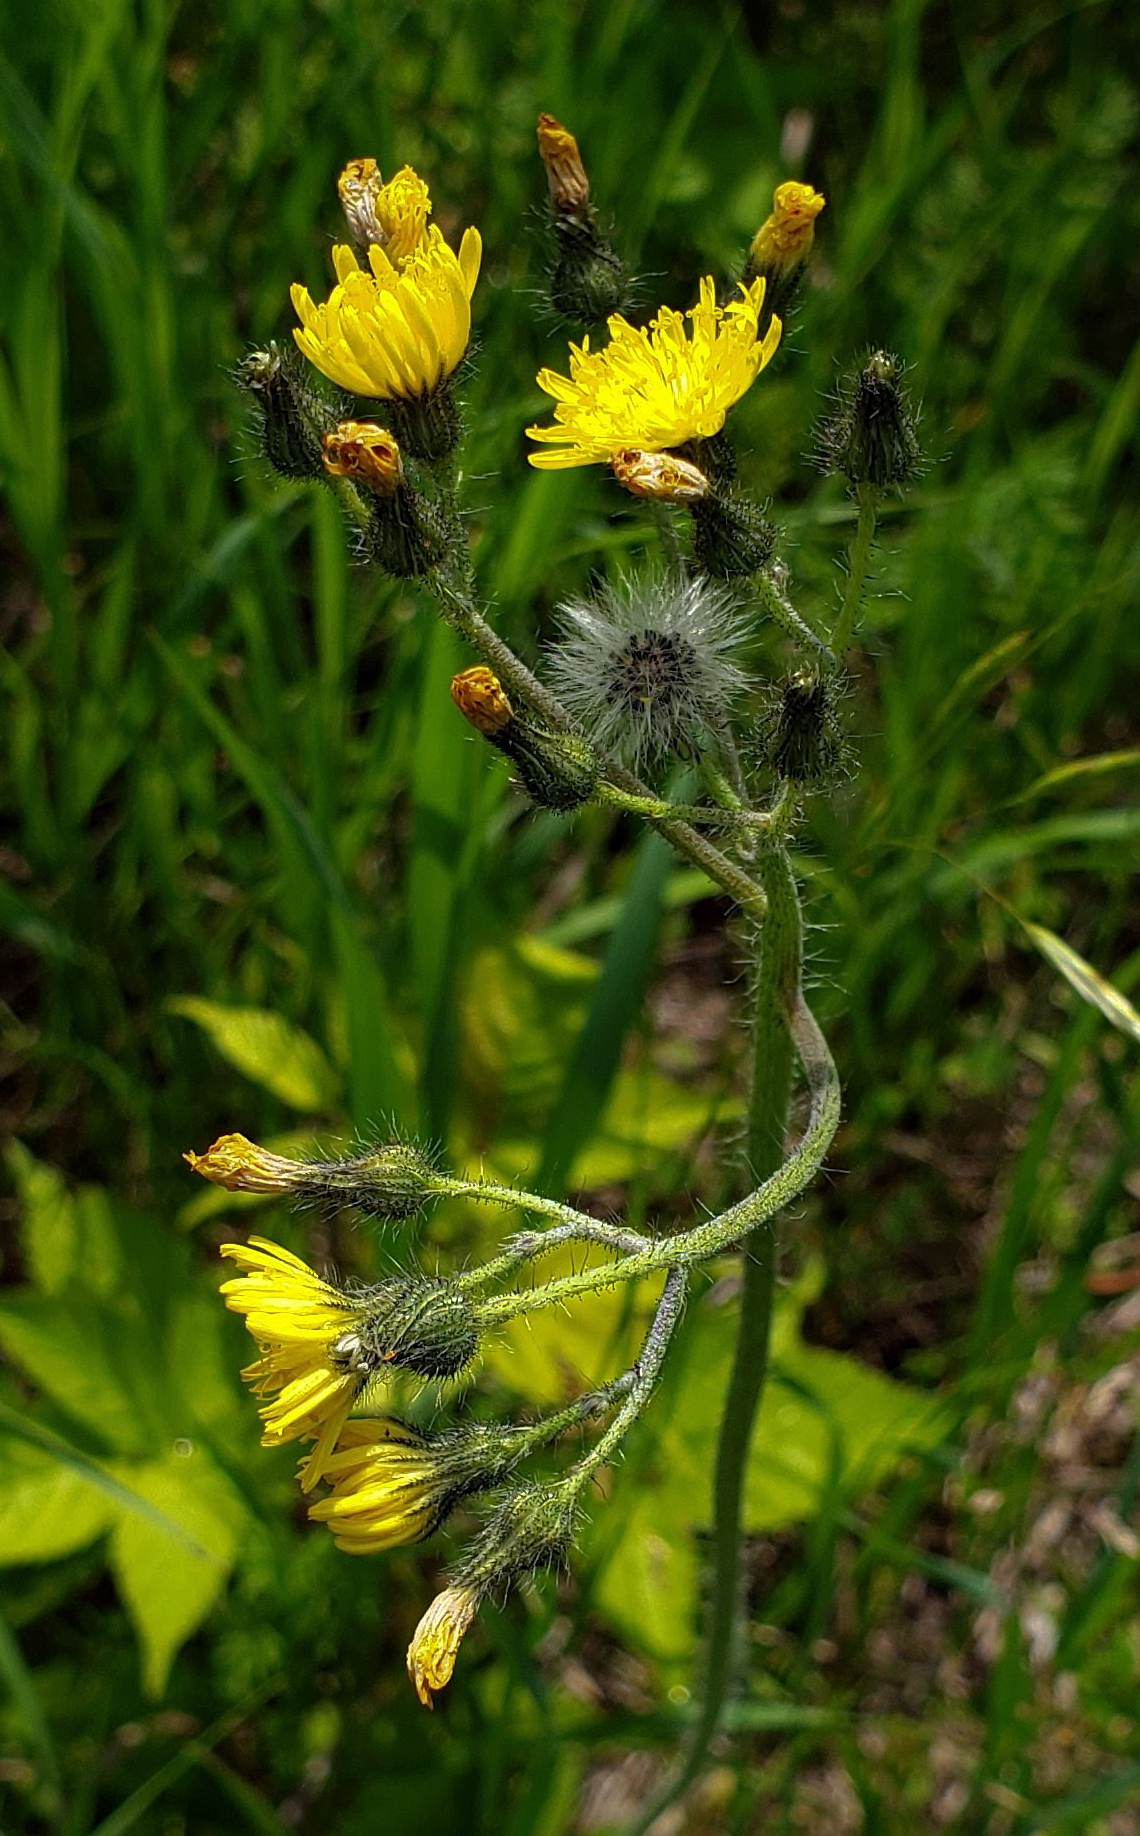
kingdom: Plantae
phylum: Tracheophyta
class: Magnoliopsida
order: Asterales
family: Asteraceae
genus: Pilosella
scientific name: Pilosella caespitosa
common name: Yellow fox-and-cubs
